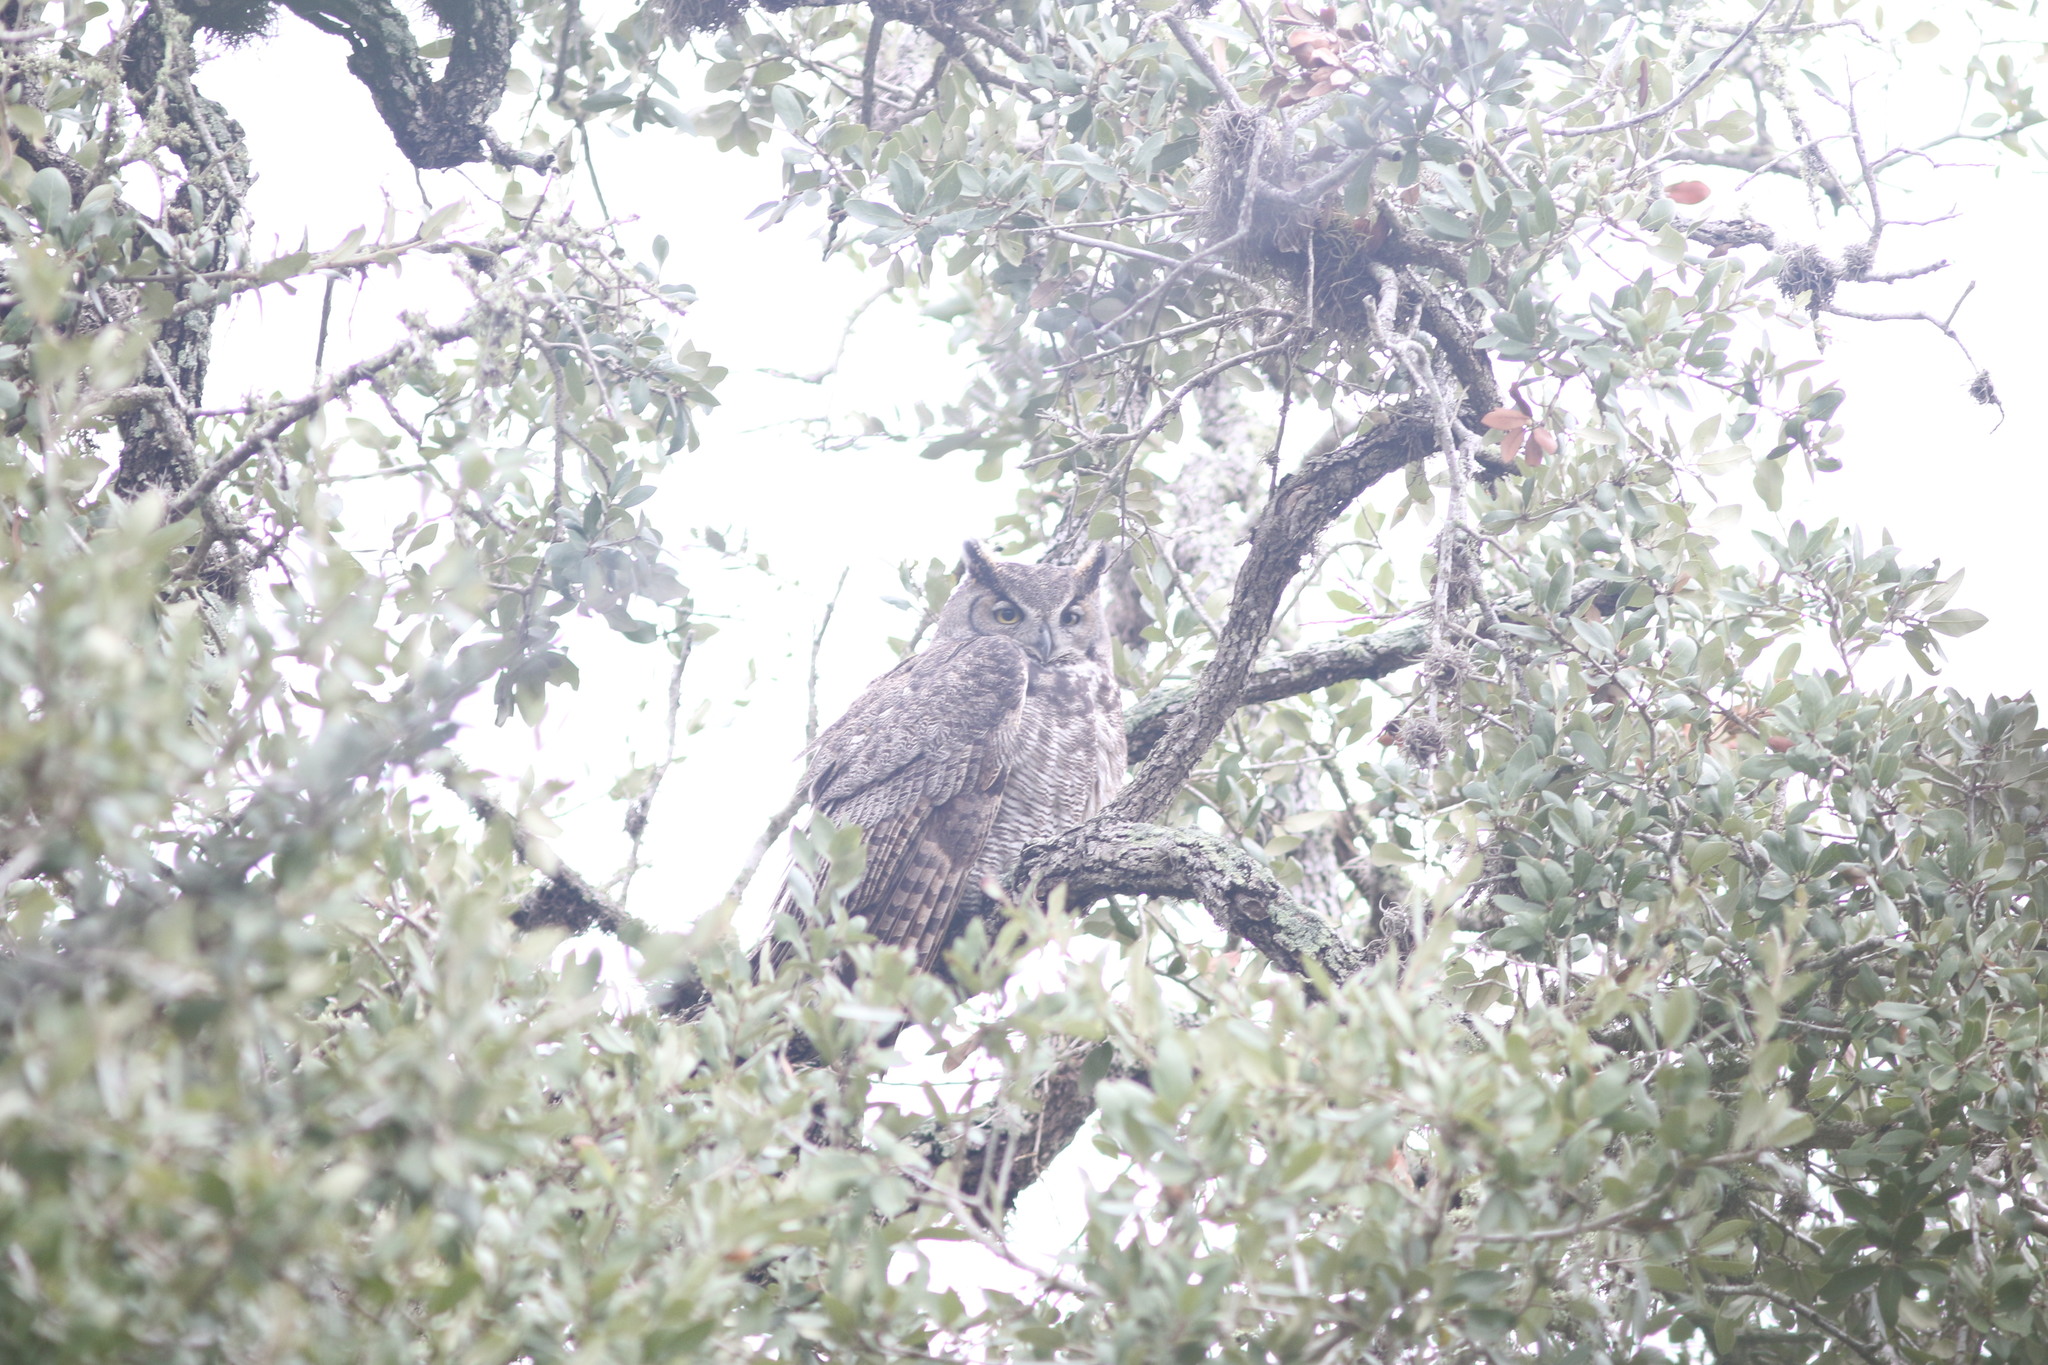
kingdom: Animalia
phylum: Chordata
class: Aves
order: Strigiformes
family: Strigidae
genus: Bubo
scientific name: Bubo virginianus
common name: Great horned owl
